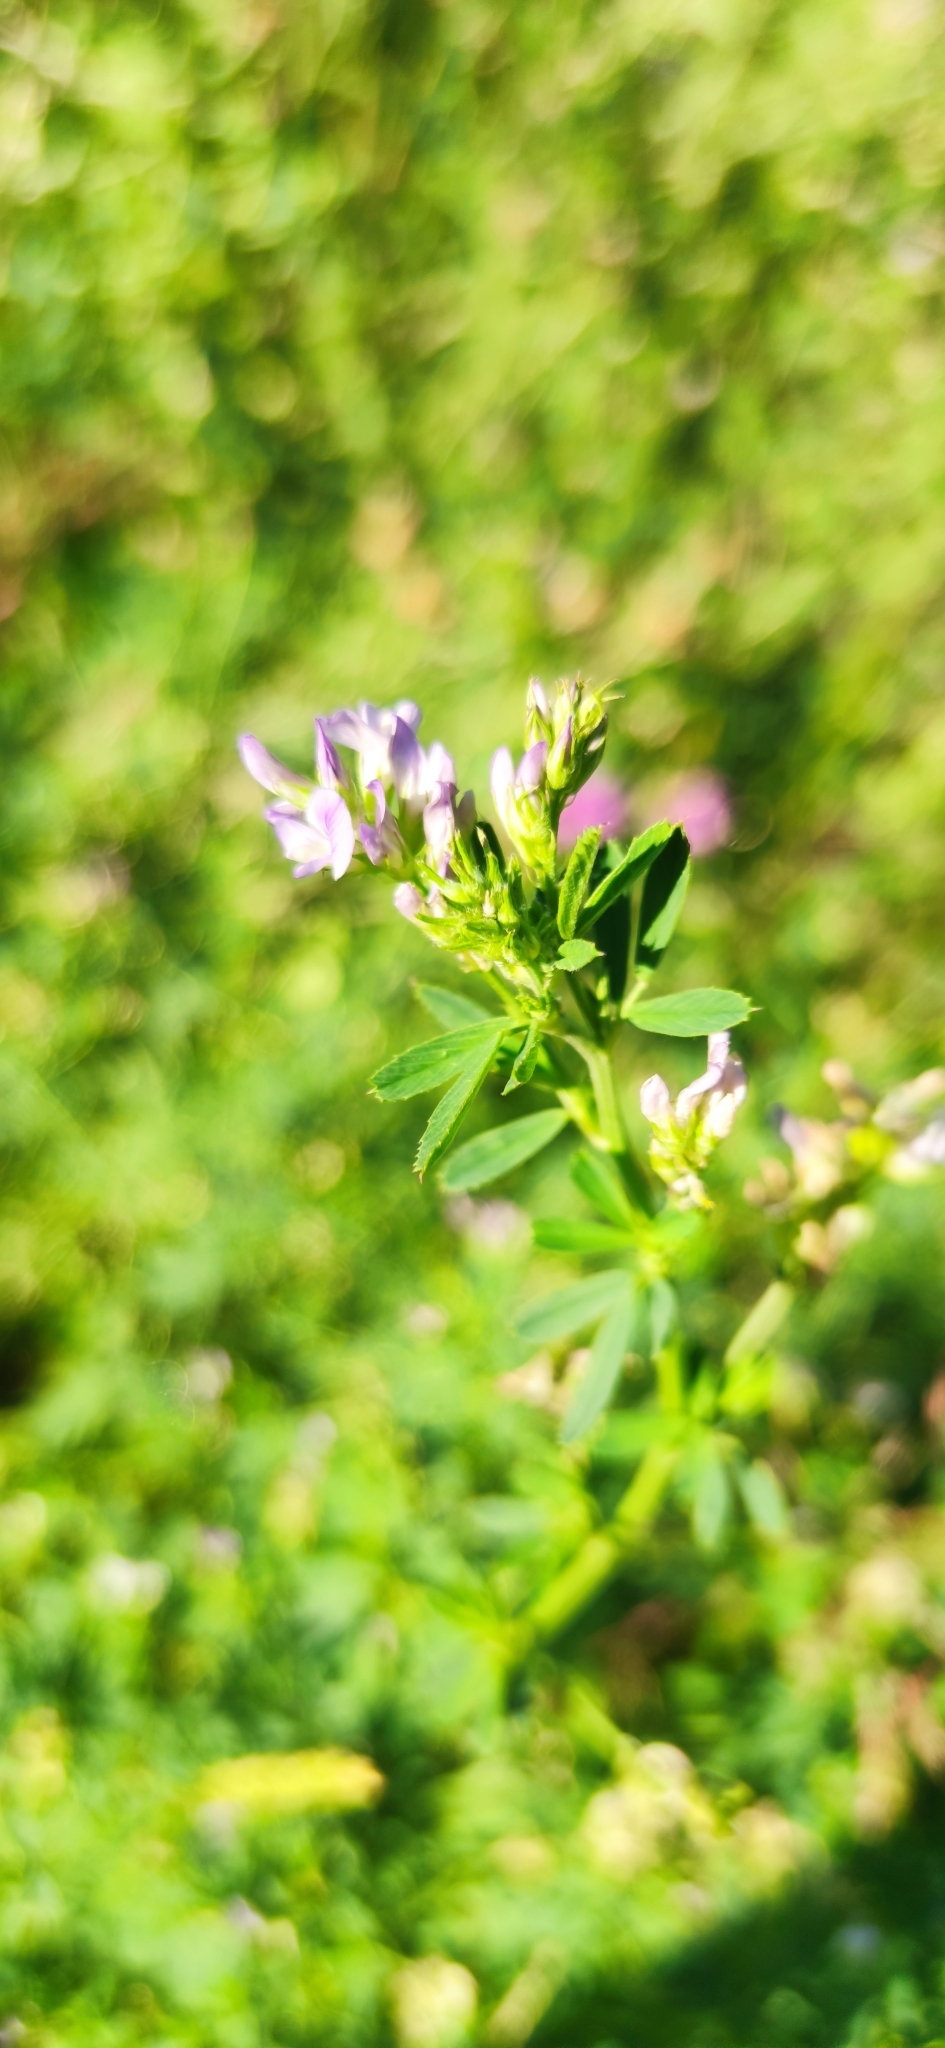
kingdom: Plantae
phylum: Tracheophyta
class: Magnoliopsida
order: Fabales
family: Fabaceae
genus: Medicago
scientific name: Medicago sativa
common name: Alfalfa
